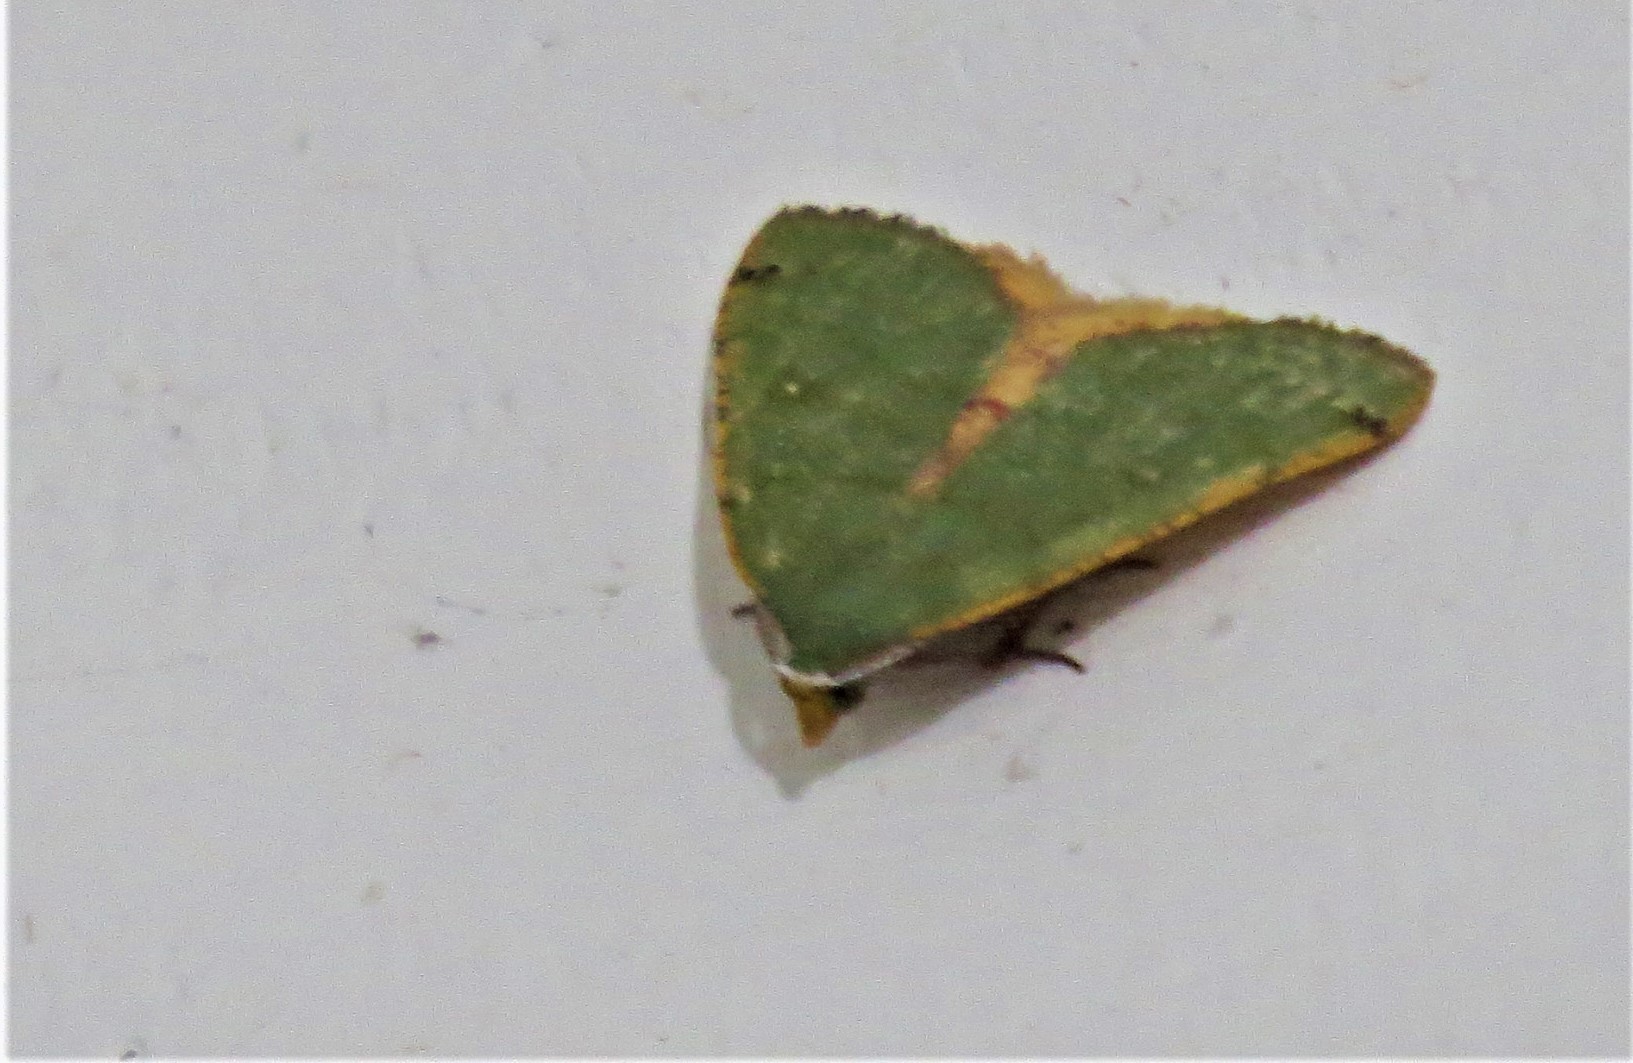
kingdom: Animalia
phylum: Arthropoda
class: Insecta
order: Lepidoptera
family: Geometridae
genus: Chloraspilates
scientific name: Chloraspilates bicoloraria
